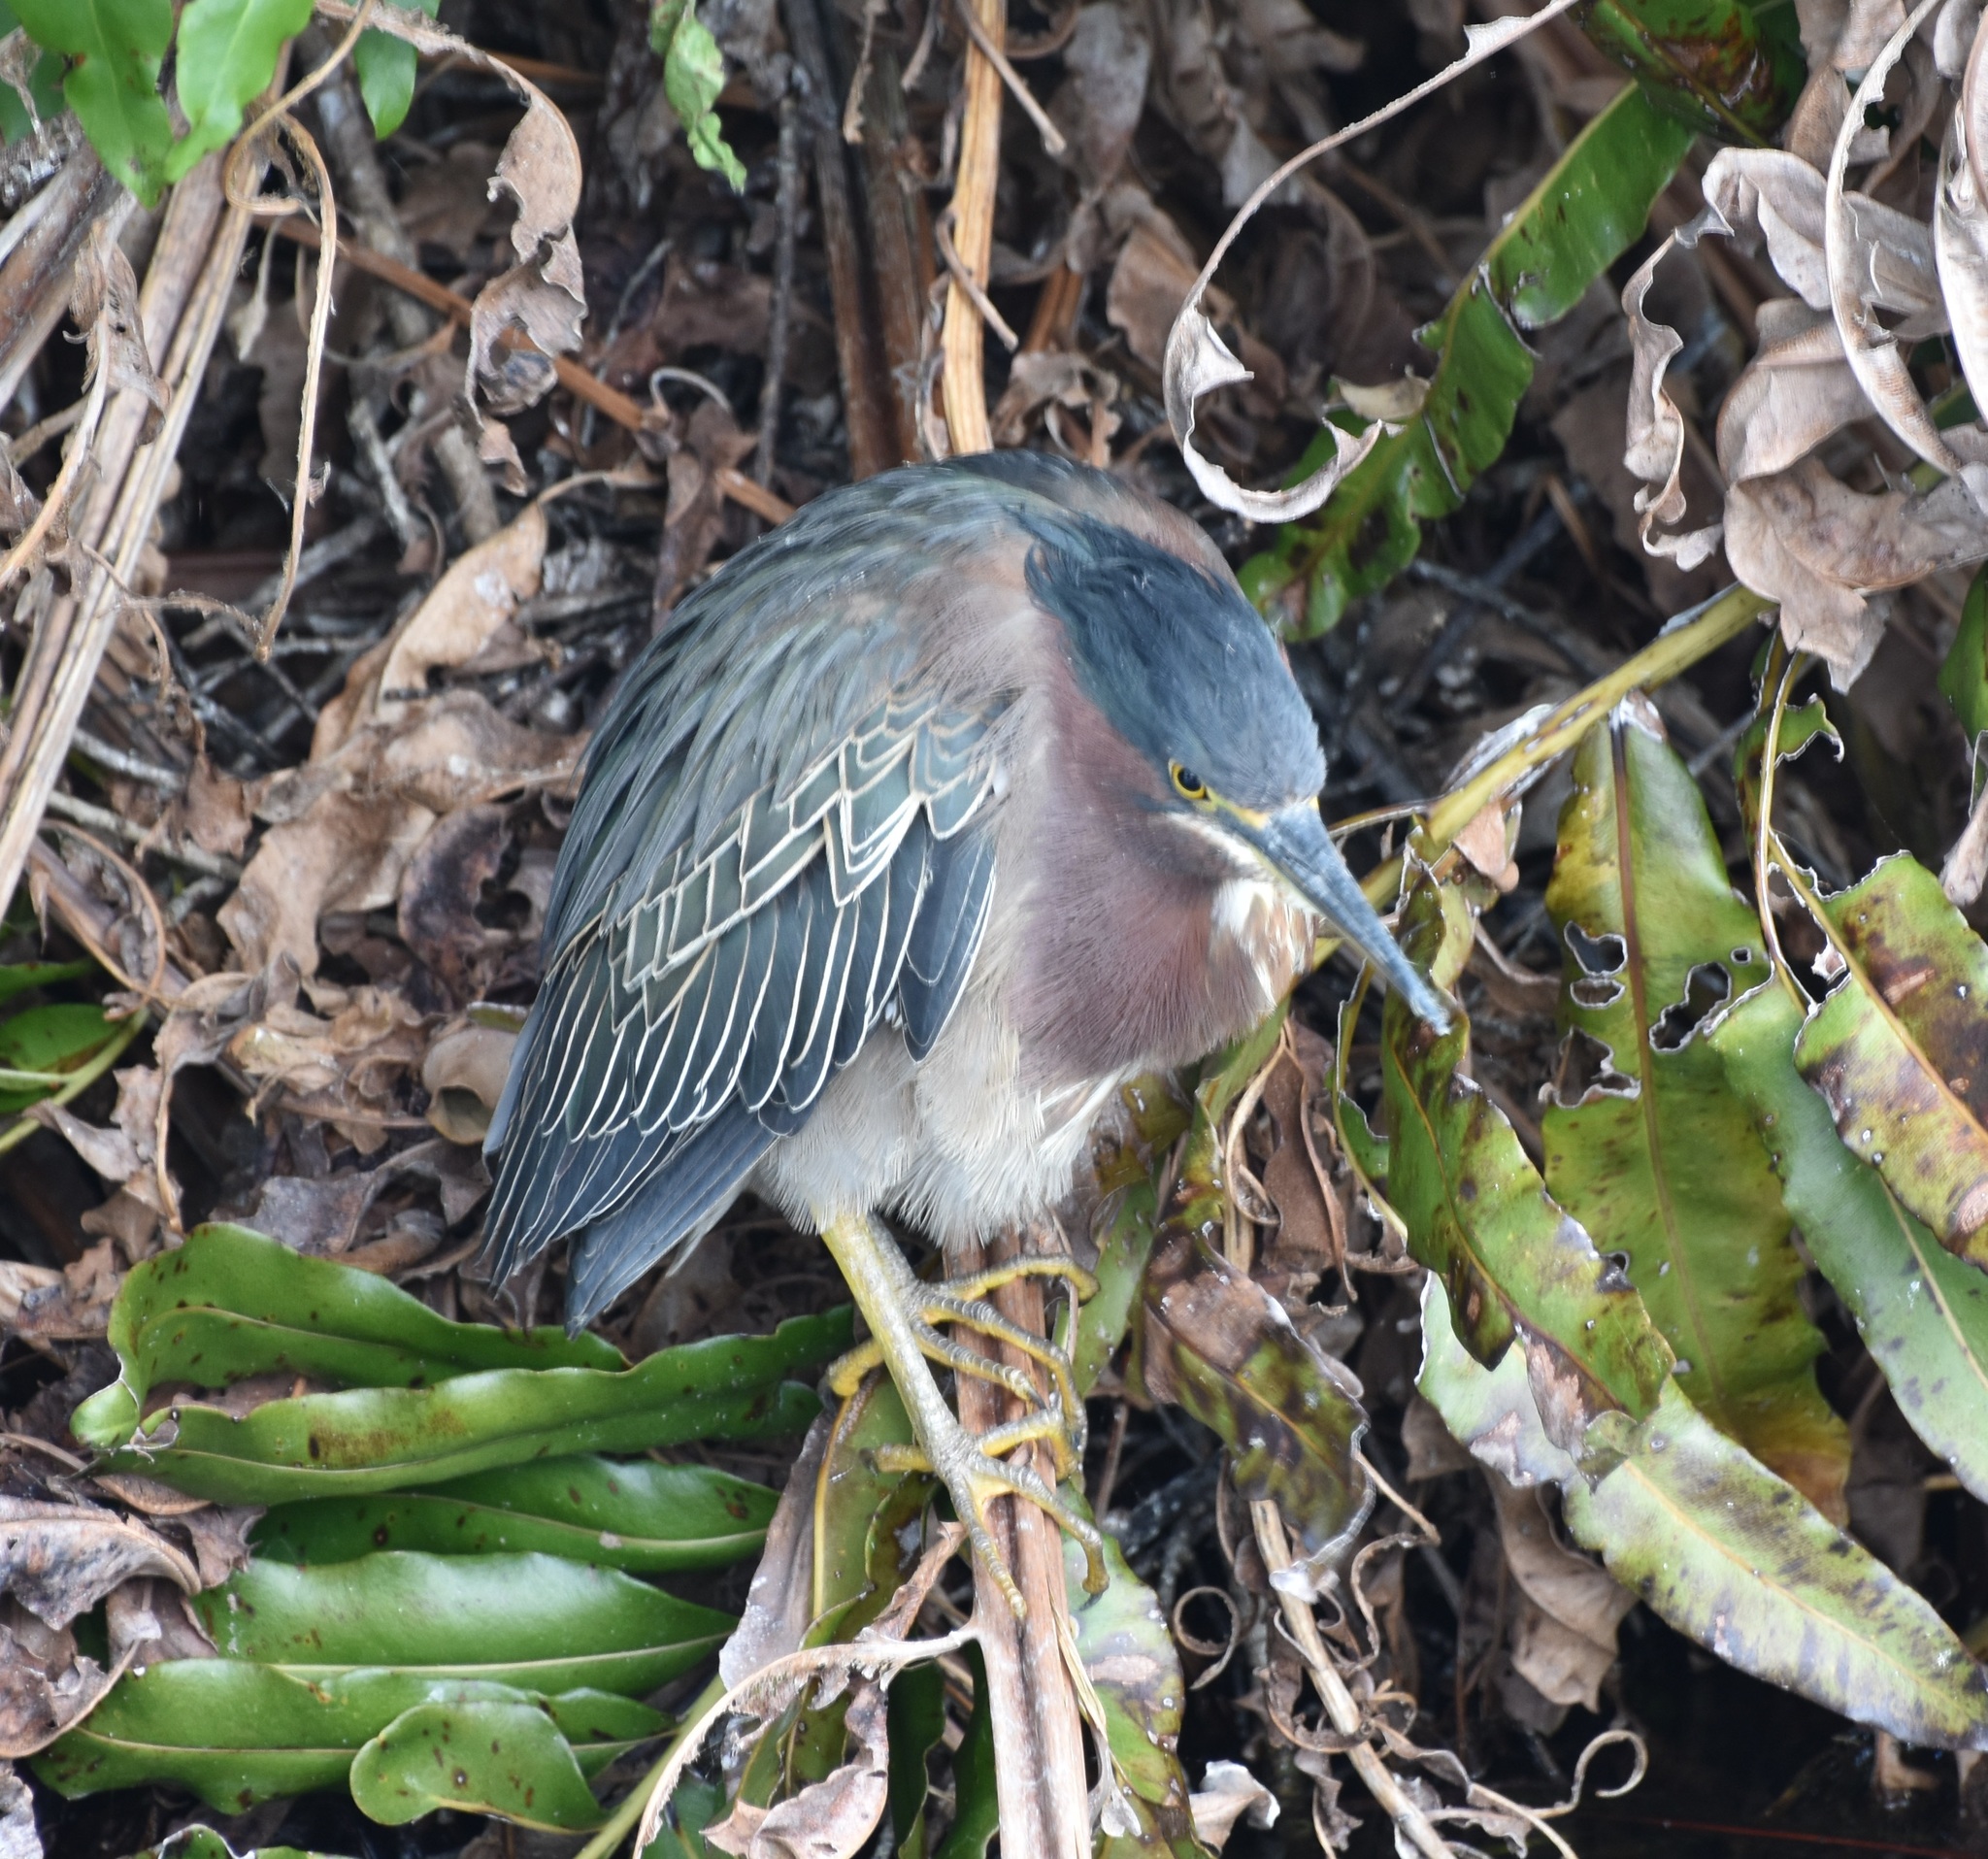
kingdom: Animalia
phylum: Chordata
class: Aves
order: Pelecaniformes
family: Ardeidae
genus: Butorides
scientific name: Butorides virescens
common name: Green heron
